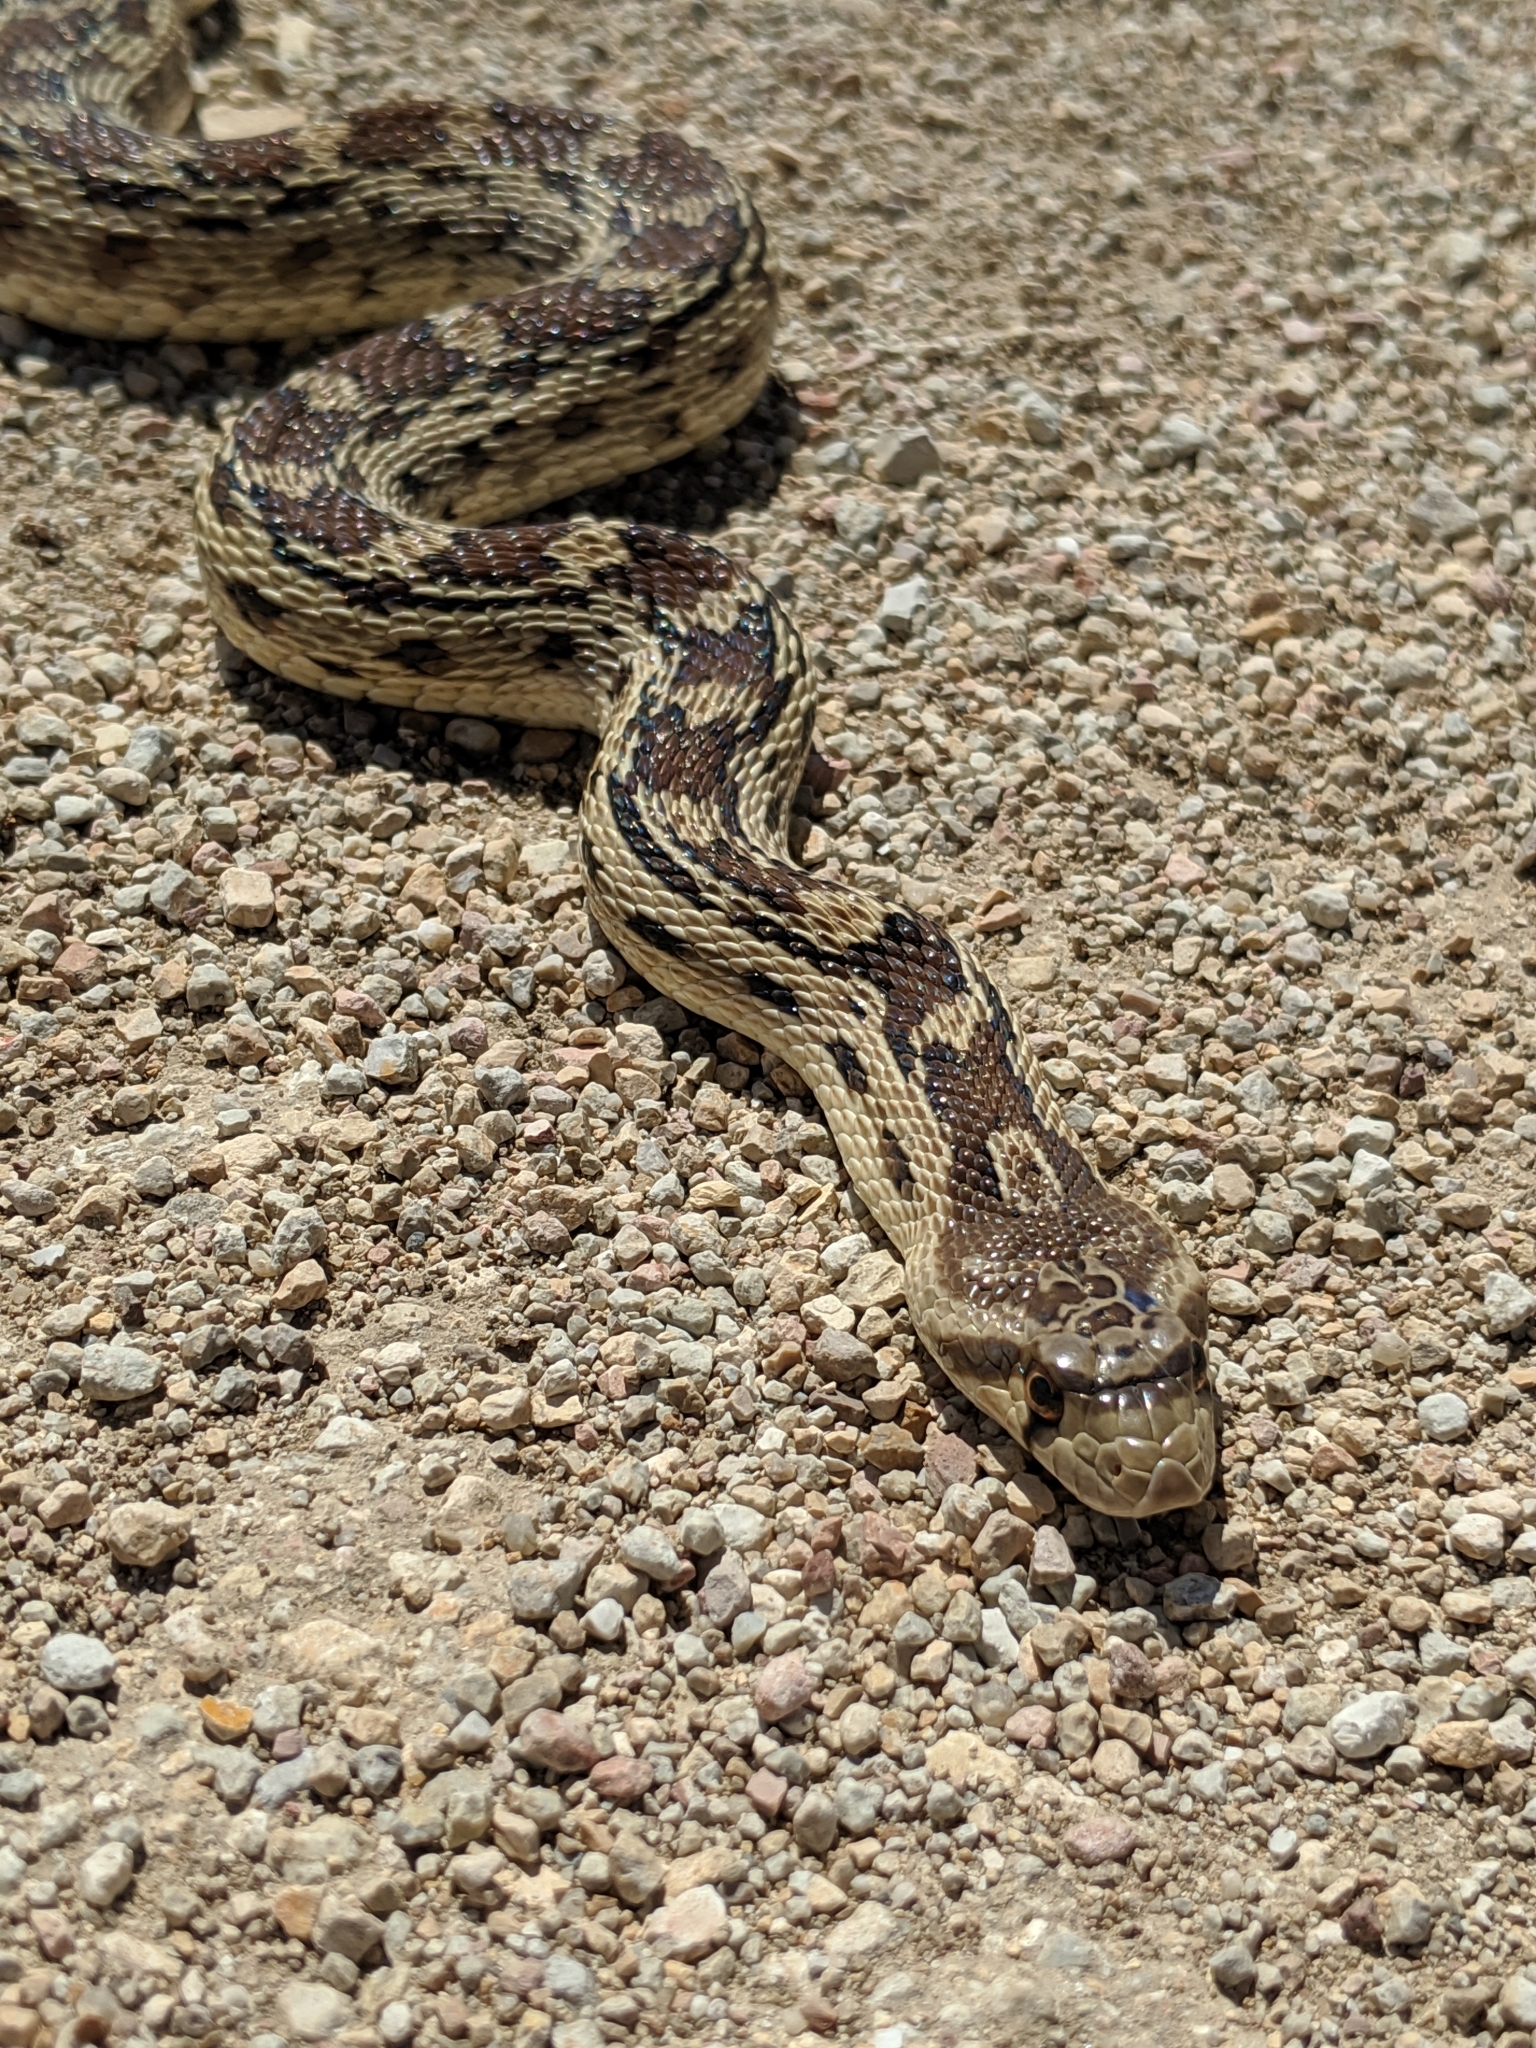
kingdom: Animalia
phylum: Chordata
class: Squamata
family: Colubridae
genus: Pituophis
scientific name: Pituophis catenifer
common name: Gopher snake
